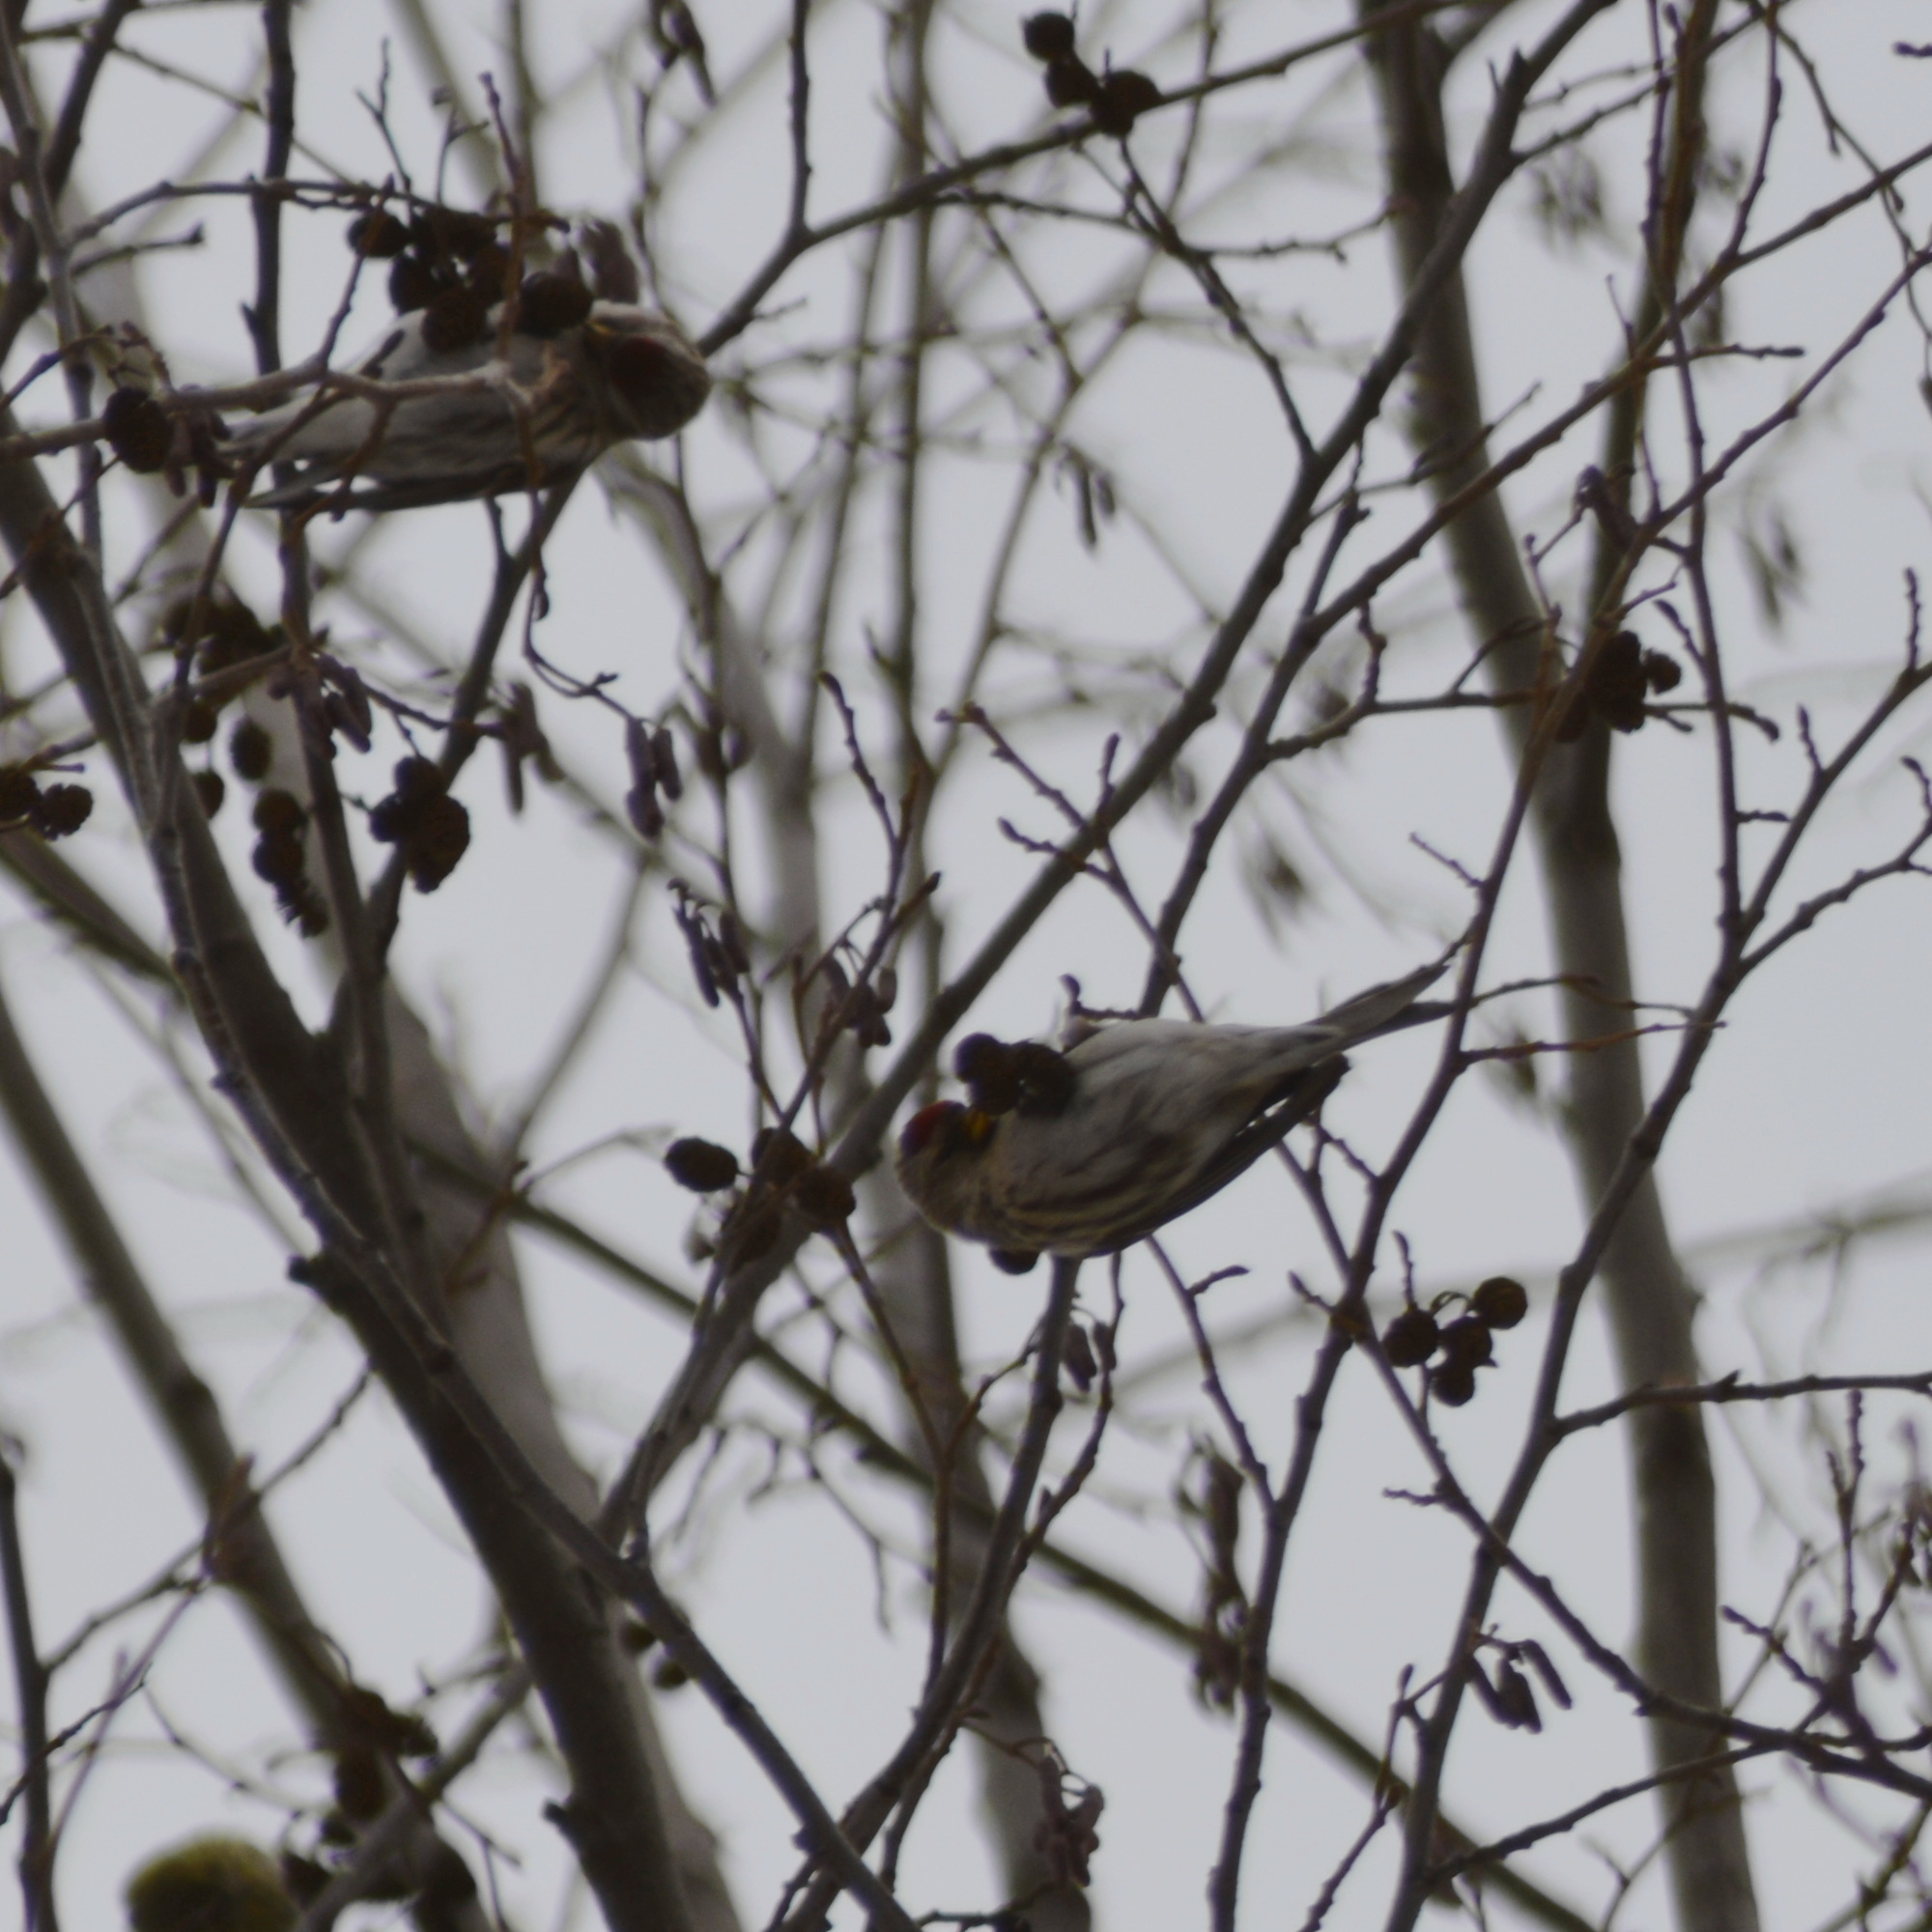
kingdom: Animalia
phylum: Chordata
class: Aves
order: Passeriformes
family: Fringillidae
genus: Acanthis
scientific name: Acanthis flammea
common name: Common redpoll
